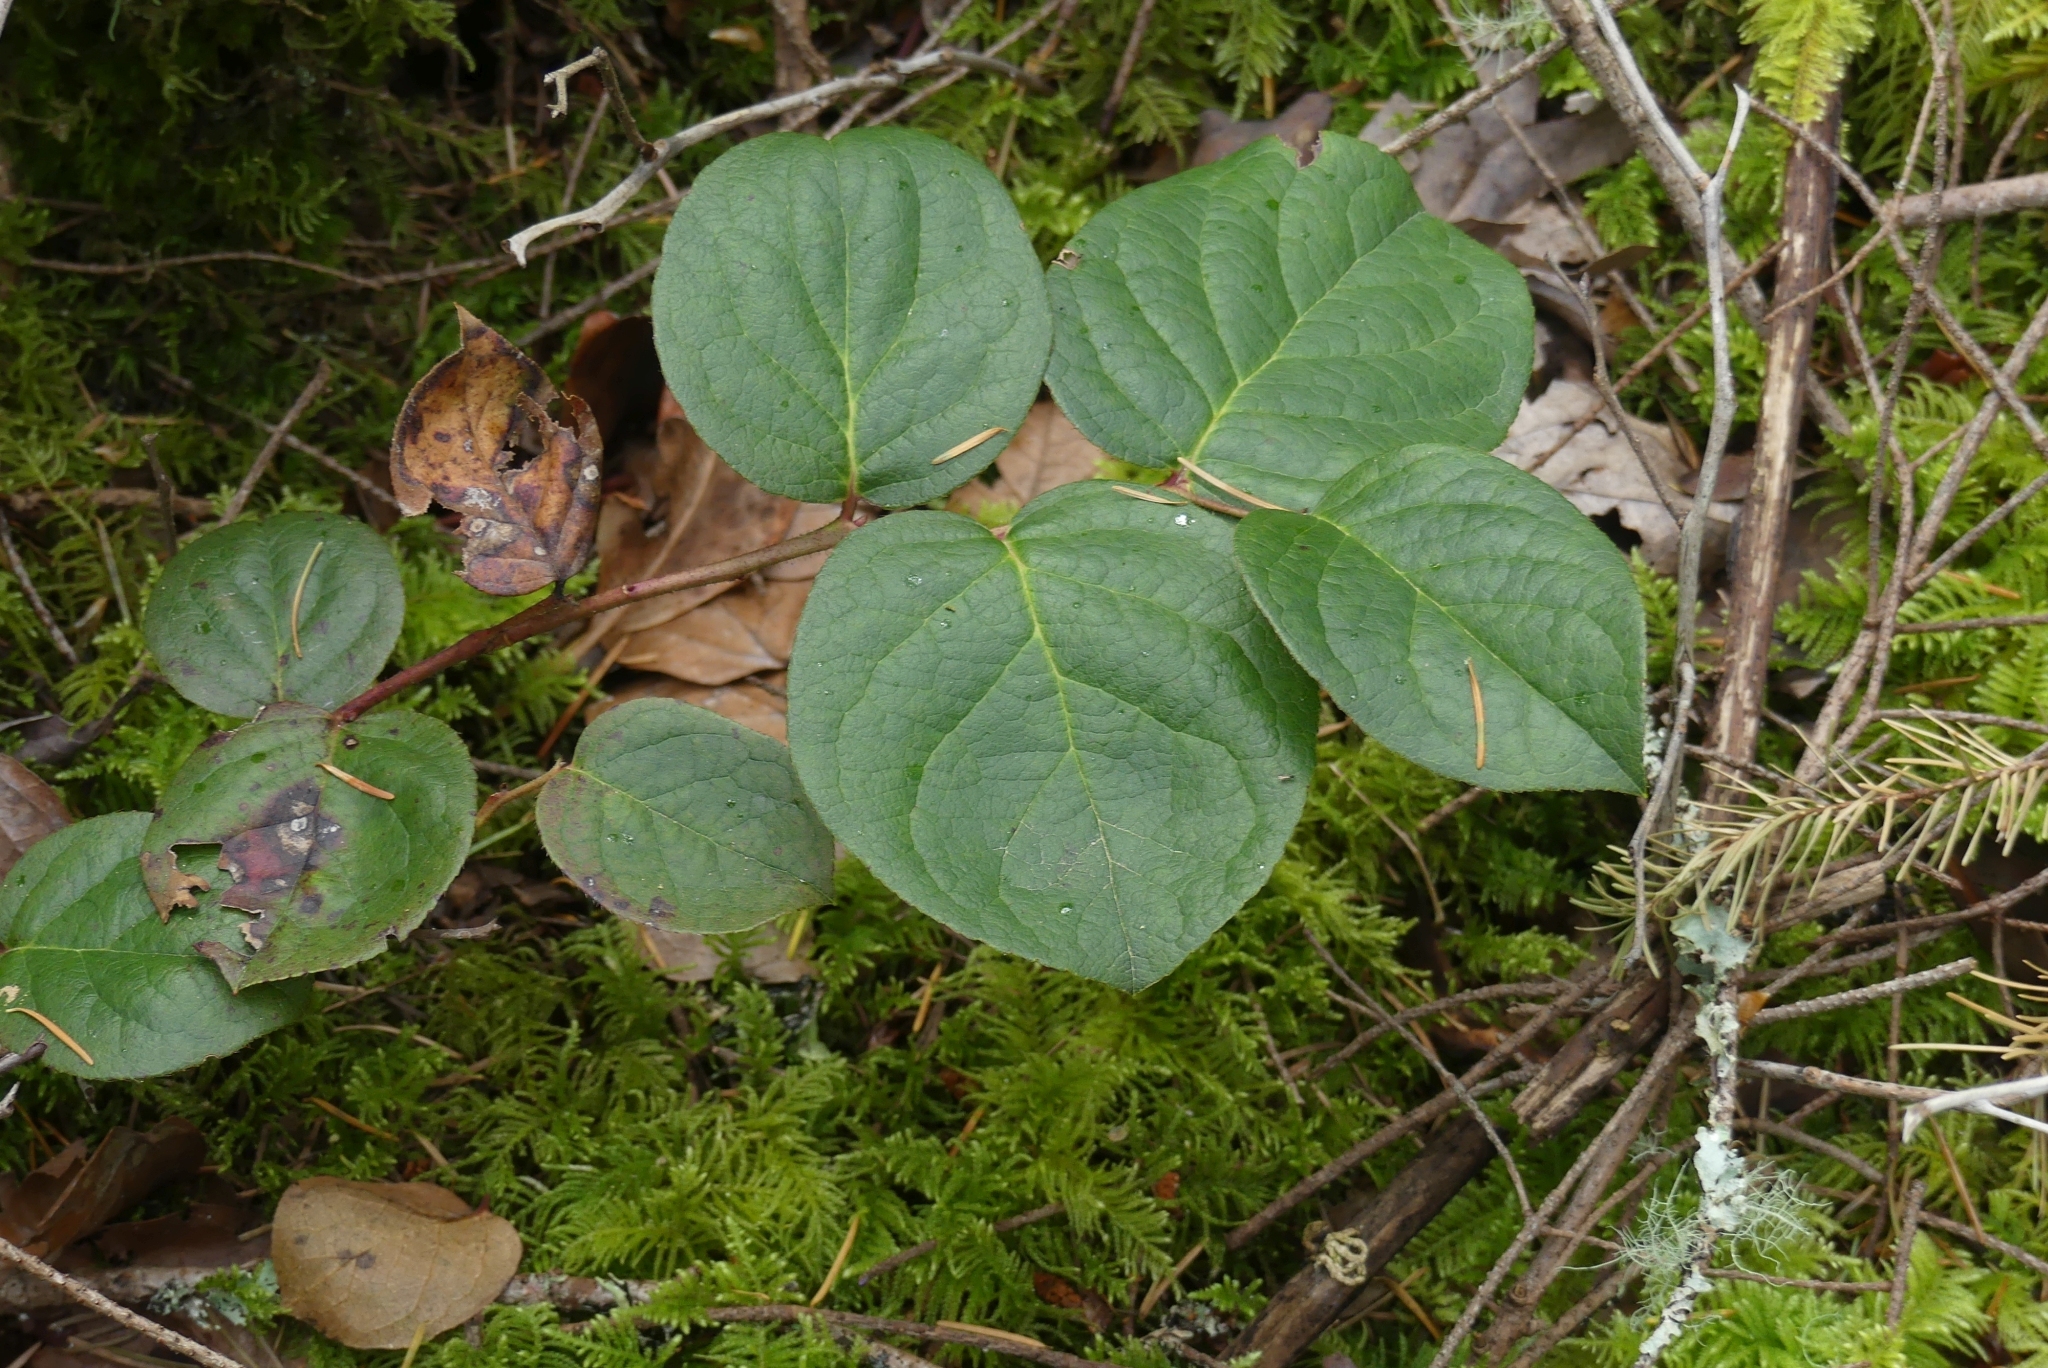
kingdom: Plantae
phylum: Tracheophyta
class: Magnoliopsida
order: Ericales
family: Ericaceae
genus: Gaultheria
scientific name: Gaultheria shallon
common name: Shallon
